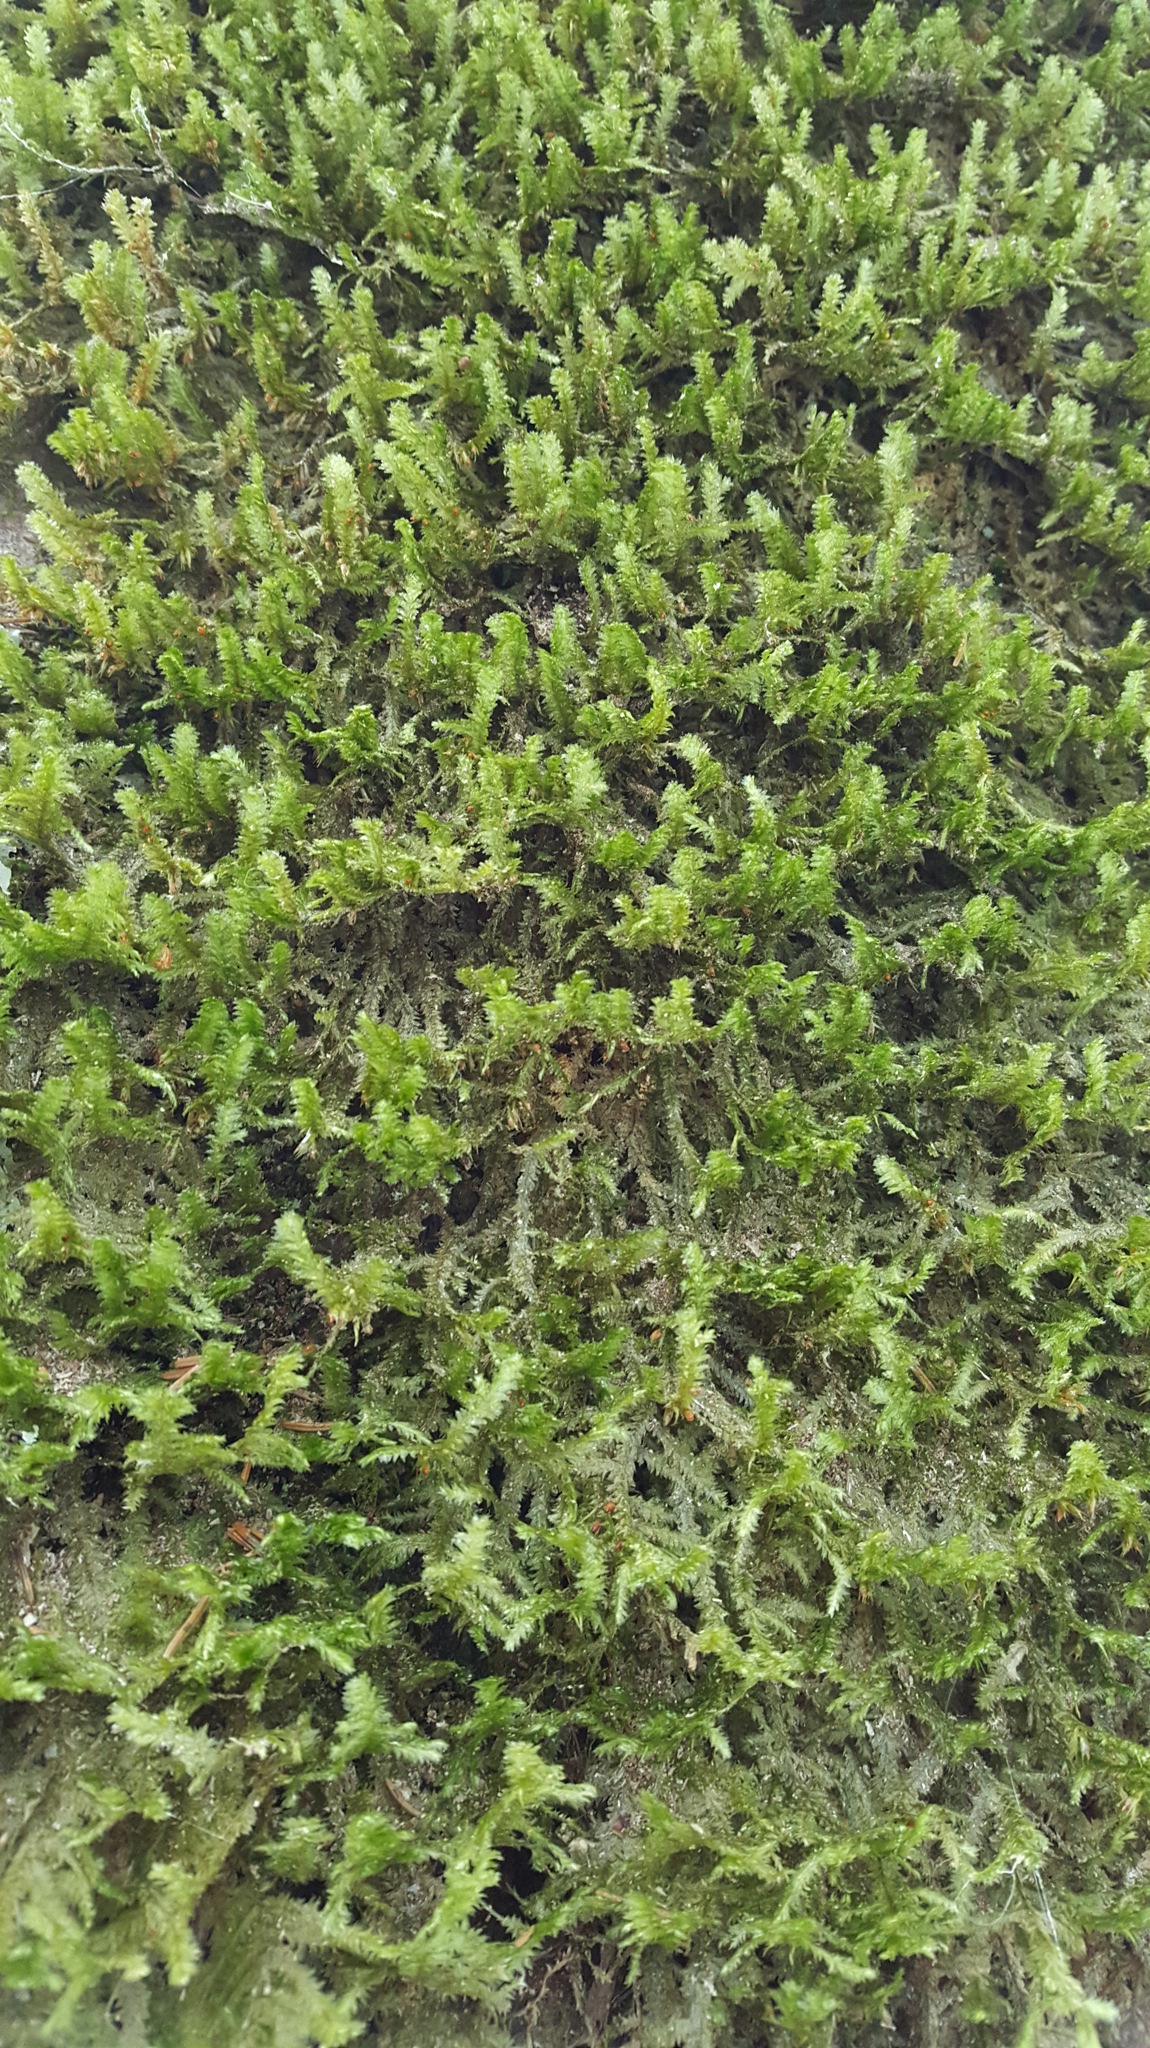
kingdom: Plantae
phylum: Bryophyta
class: Bryopsida
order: Hypnales
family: Neckeraceae
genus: Neckera
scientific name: Neckera pennata
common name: Feathery neckera
